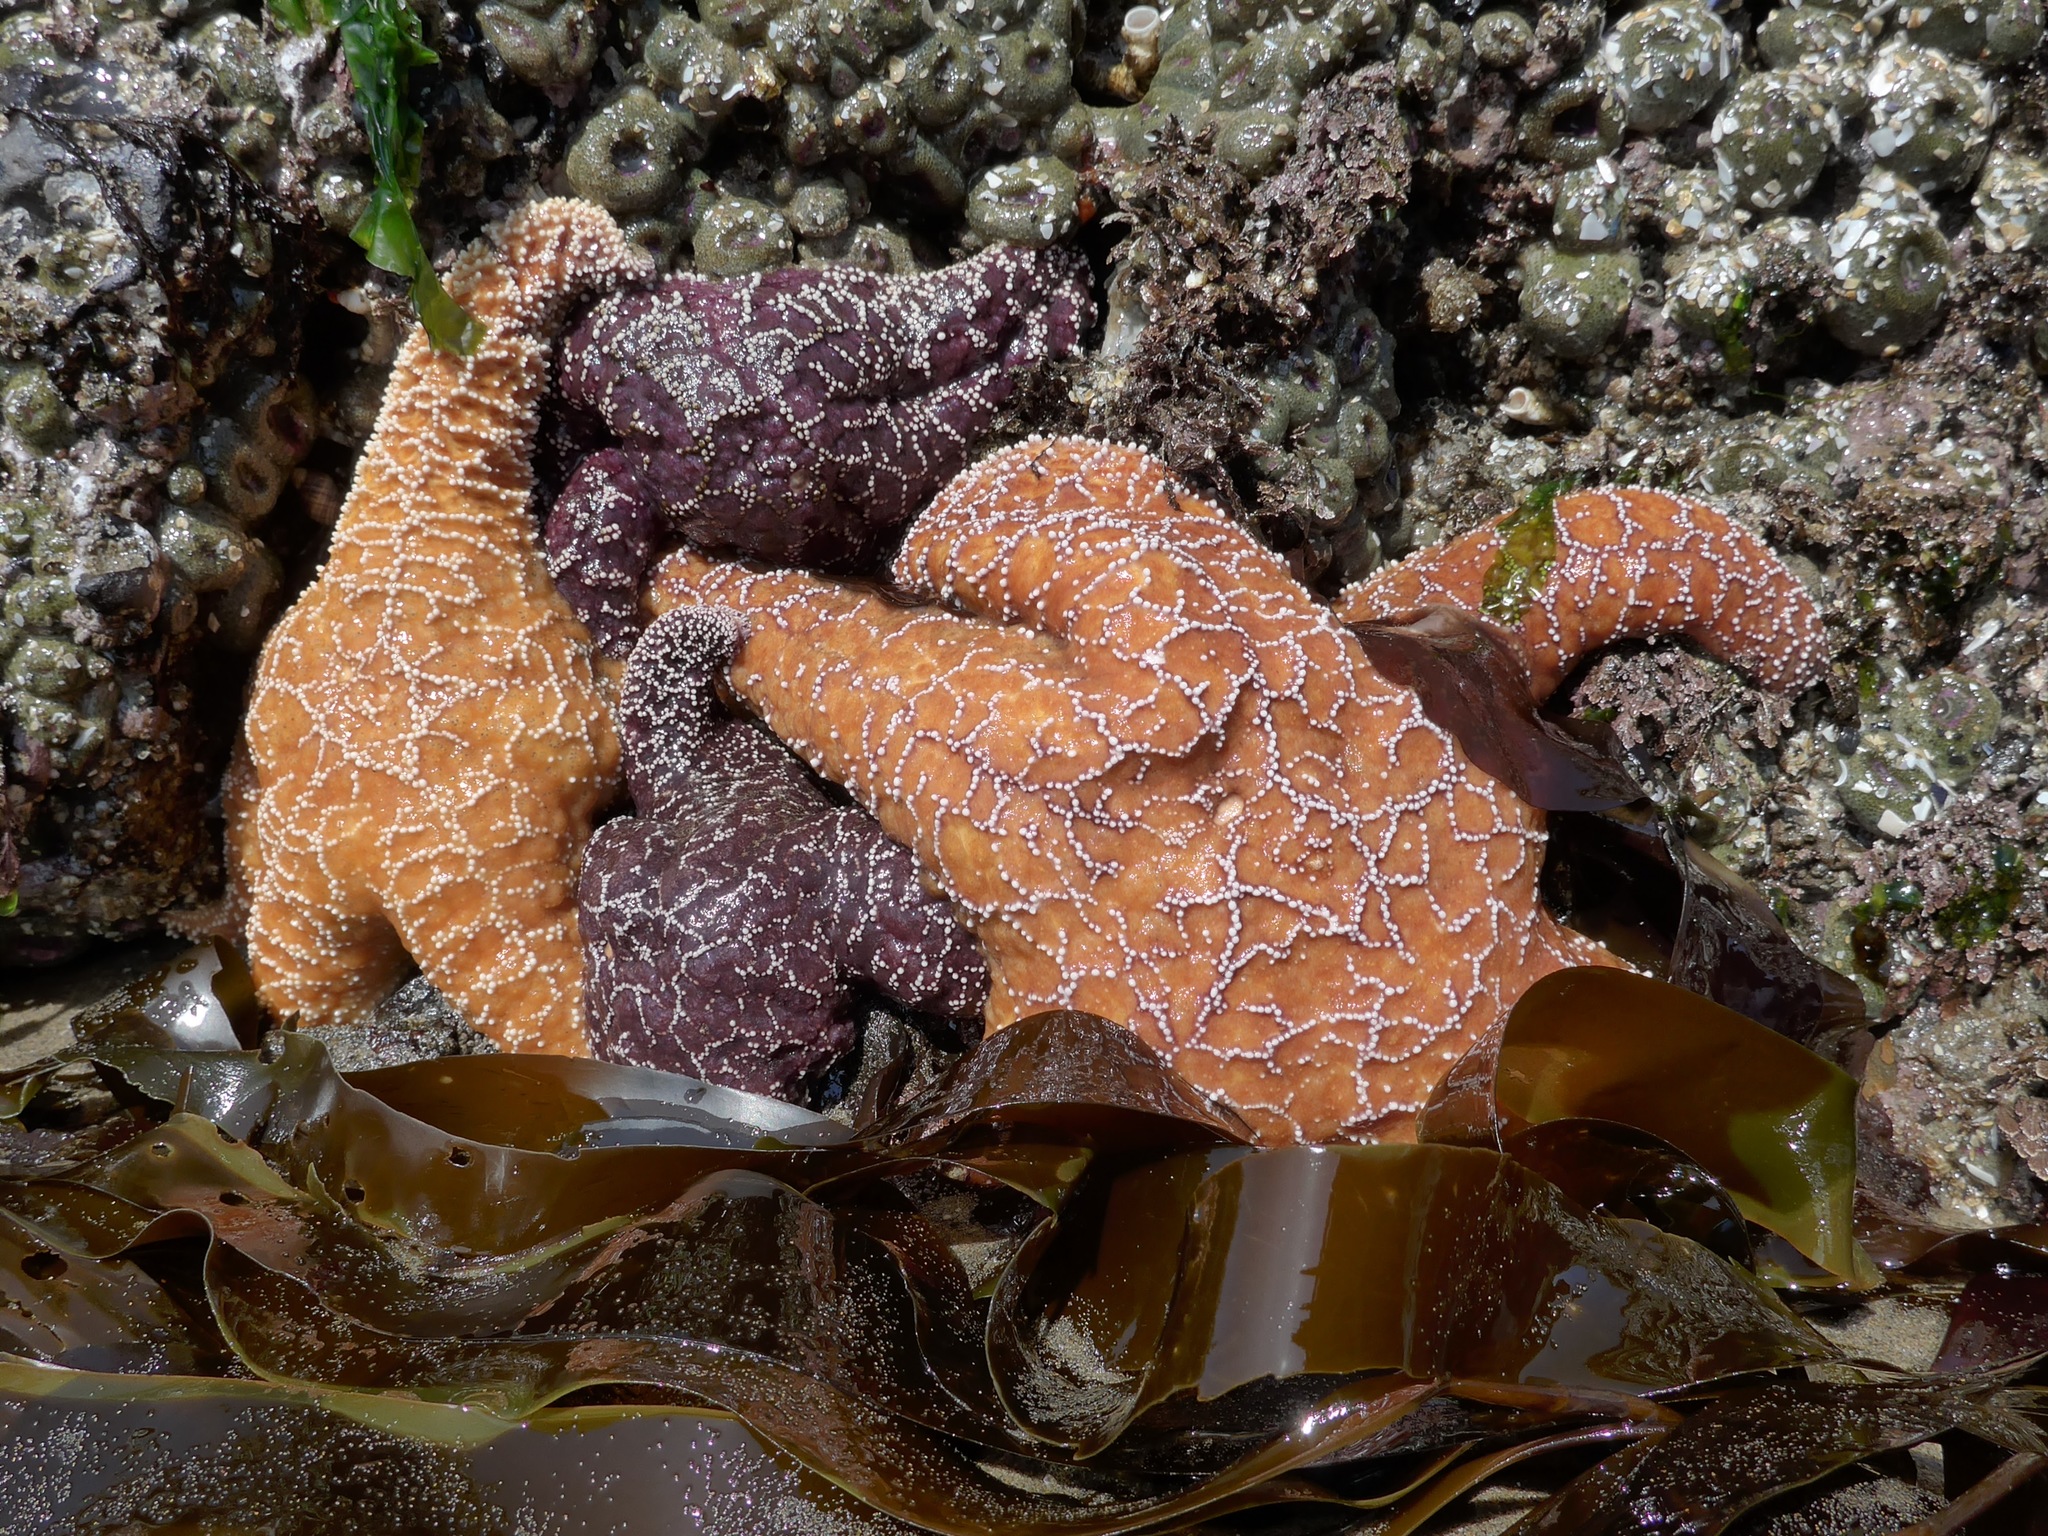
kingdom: Animalia
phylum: Echinodermata
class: Asteroidea
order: Forcipulatida
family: Asteriidae
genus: Pisaster
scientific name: Pisaster ochraceus
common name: Ochre stars
